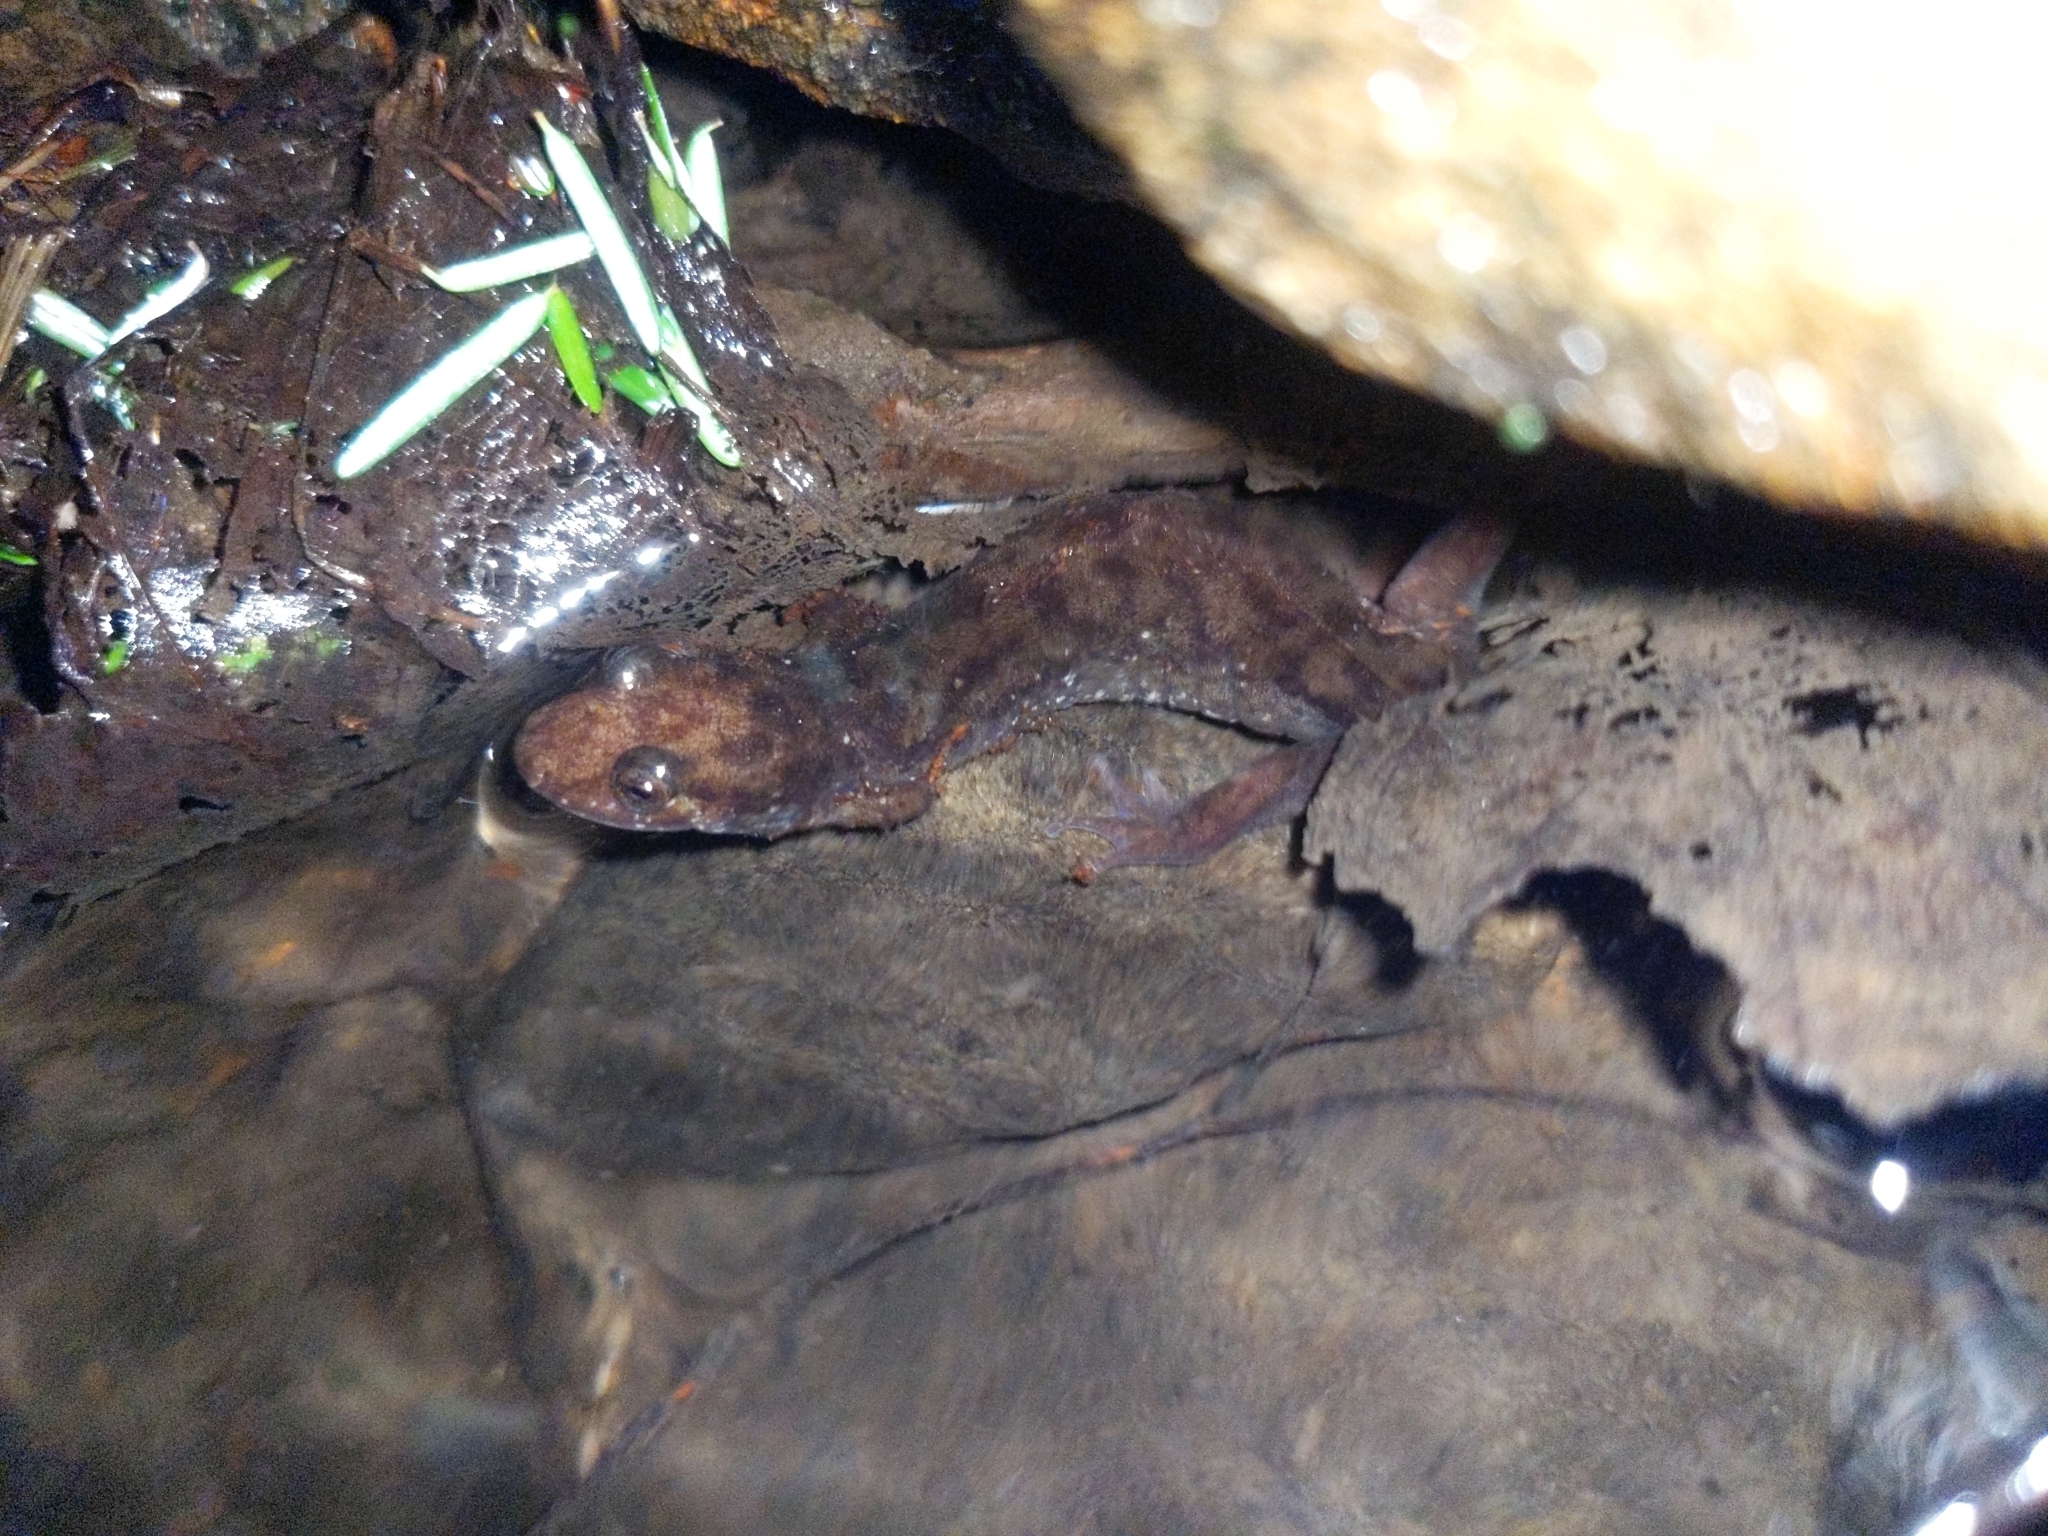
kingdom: Animalia
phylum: Chordata
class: Amphibia
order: Caudata
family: Plethodontidae
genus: Desmognathus
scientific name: Desmognathus monticola
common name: Seal salamander
